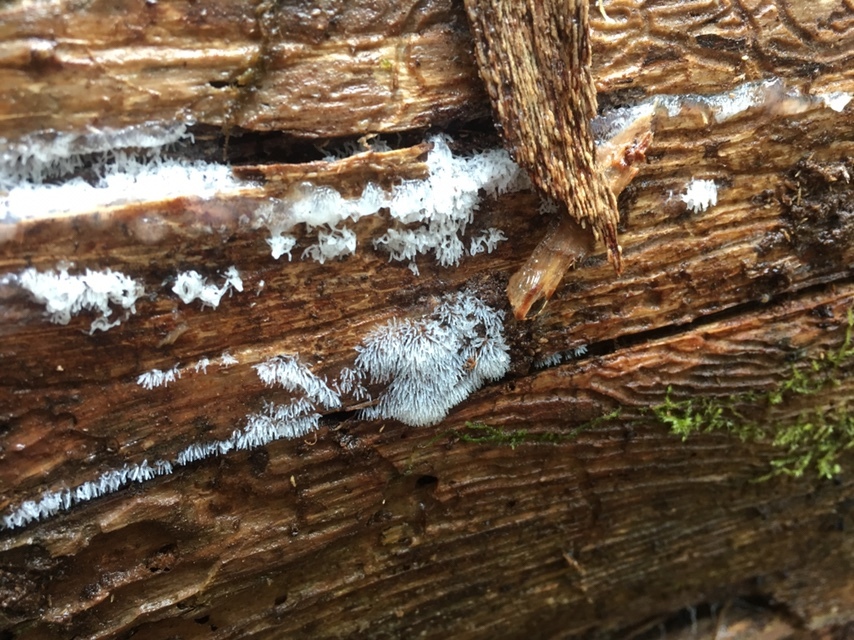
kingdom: Protozoa
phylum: Mycetozoa
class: Protosteliomycetes
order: Ceratiomyxales
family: Ceratiomyxaceae
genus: Ceratiomyxa
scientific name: Ceratiomyxa fruticulosa
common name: Honeycomb coral slime mold
